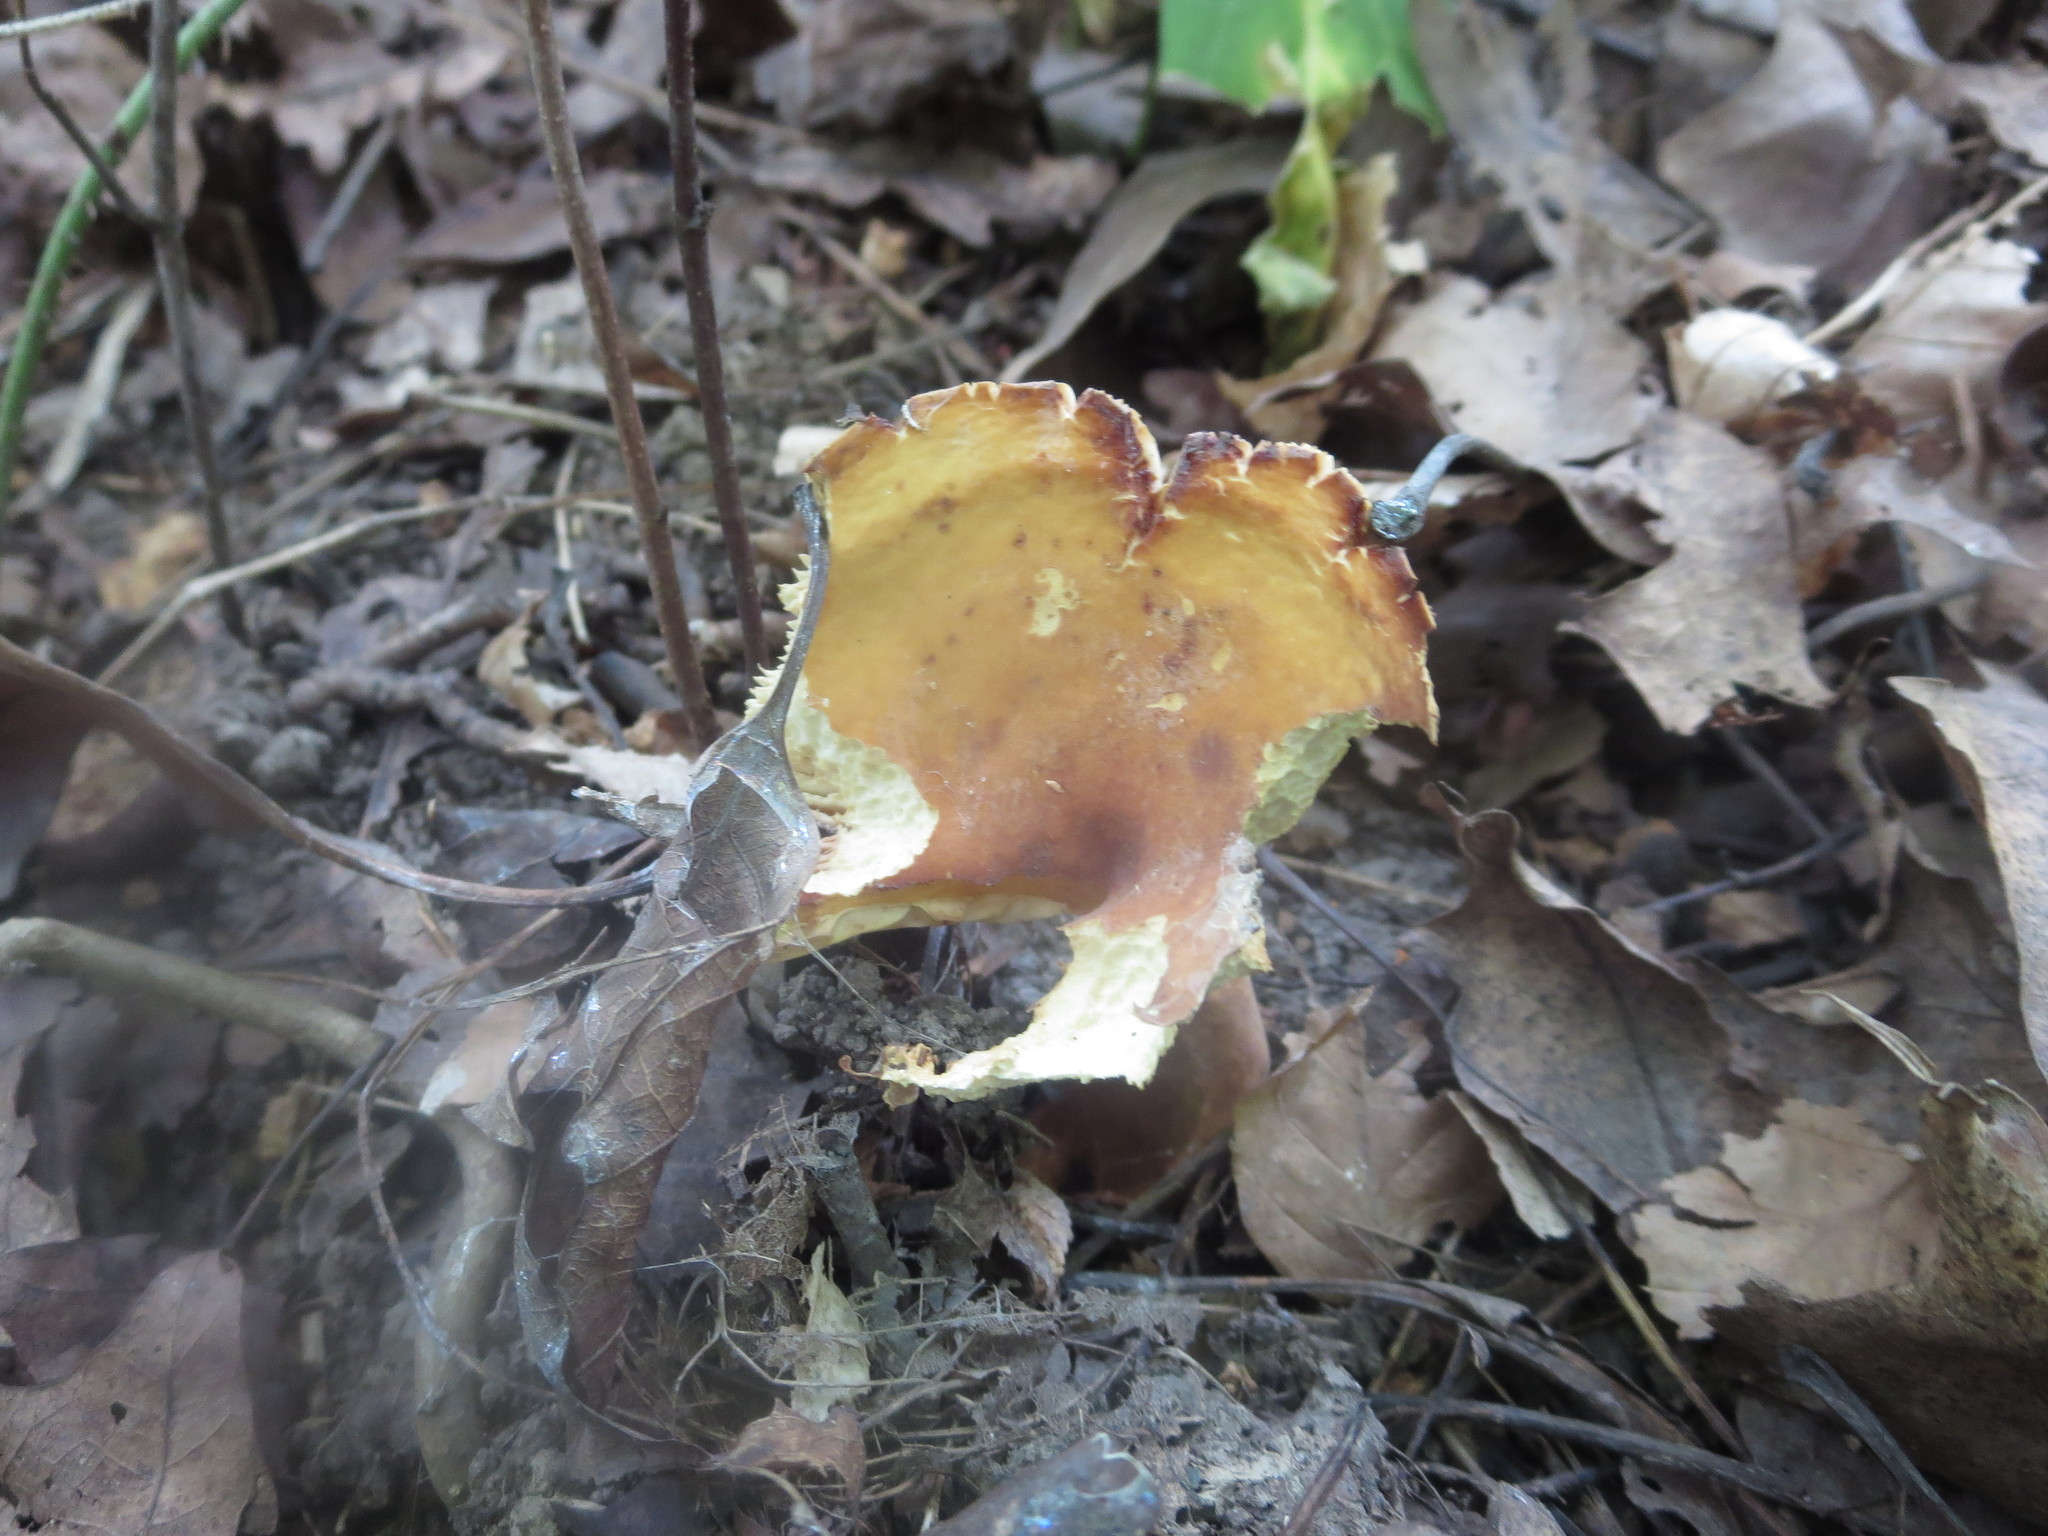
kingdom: Fungi
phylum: Basidiomycota
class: Agaricomycetes
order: Russulales
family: Russulaceae
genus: Lactifluus
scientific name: Lactifluus volemus
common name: Fishy milkcap
